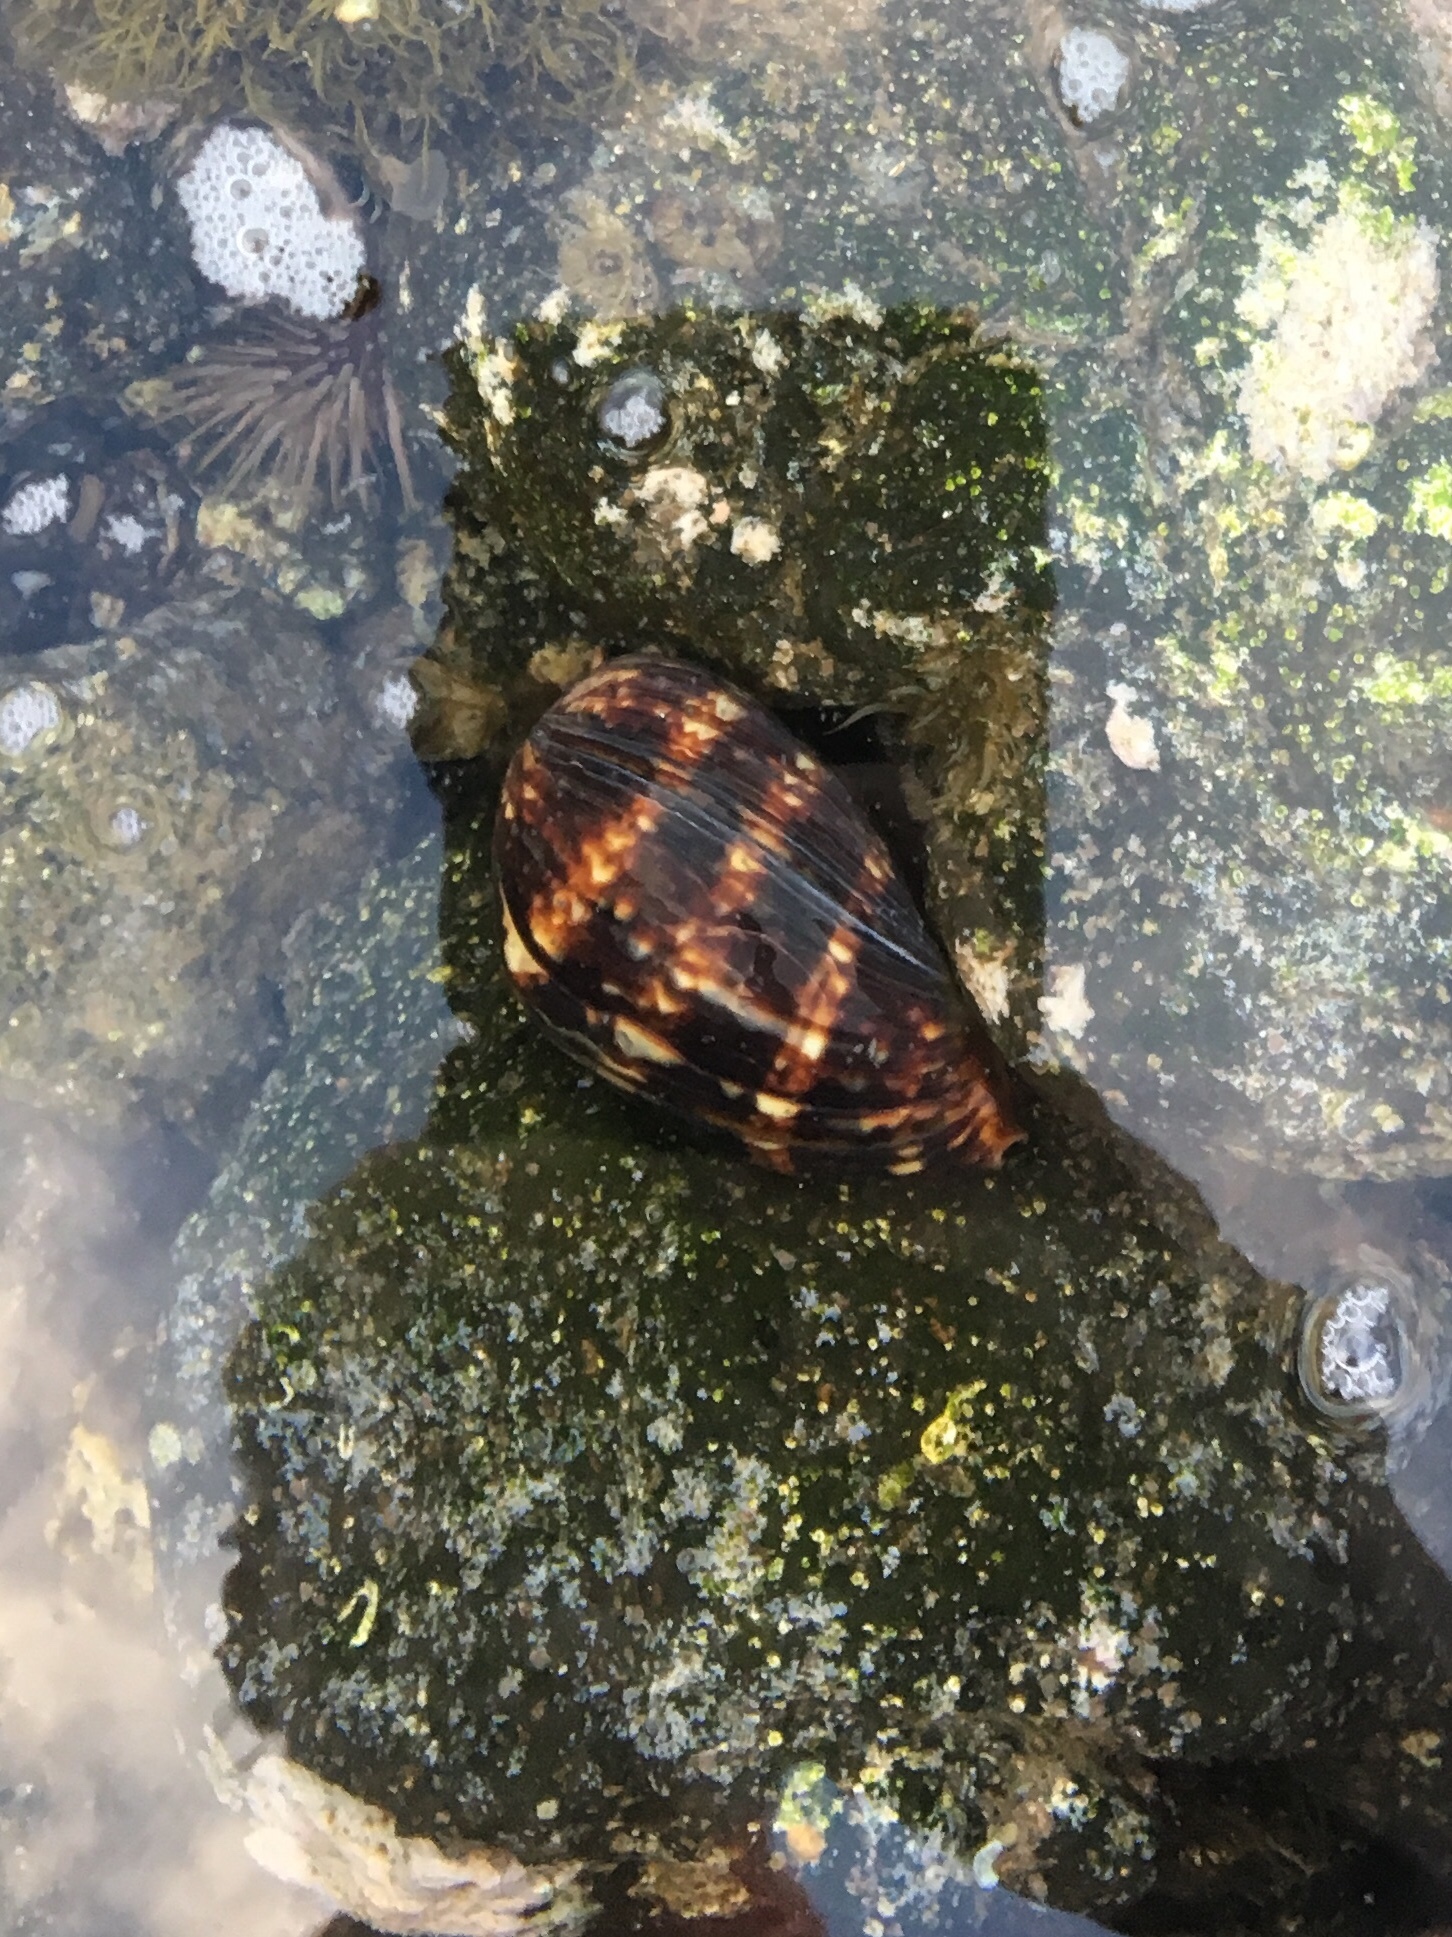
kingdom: Animalia
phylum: Mollusca
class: Gastropoda
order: Littorinimorpha
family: Cypraeidae
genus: Mauritia
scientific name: Mauritia mauritiana
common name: Hump-backed cowrie
